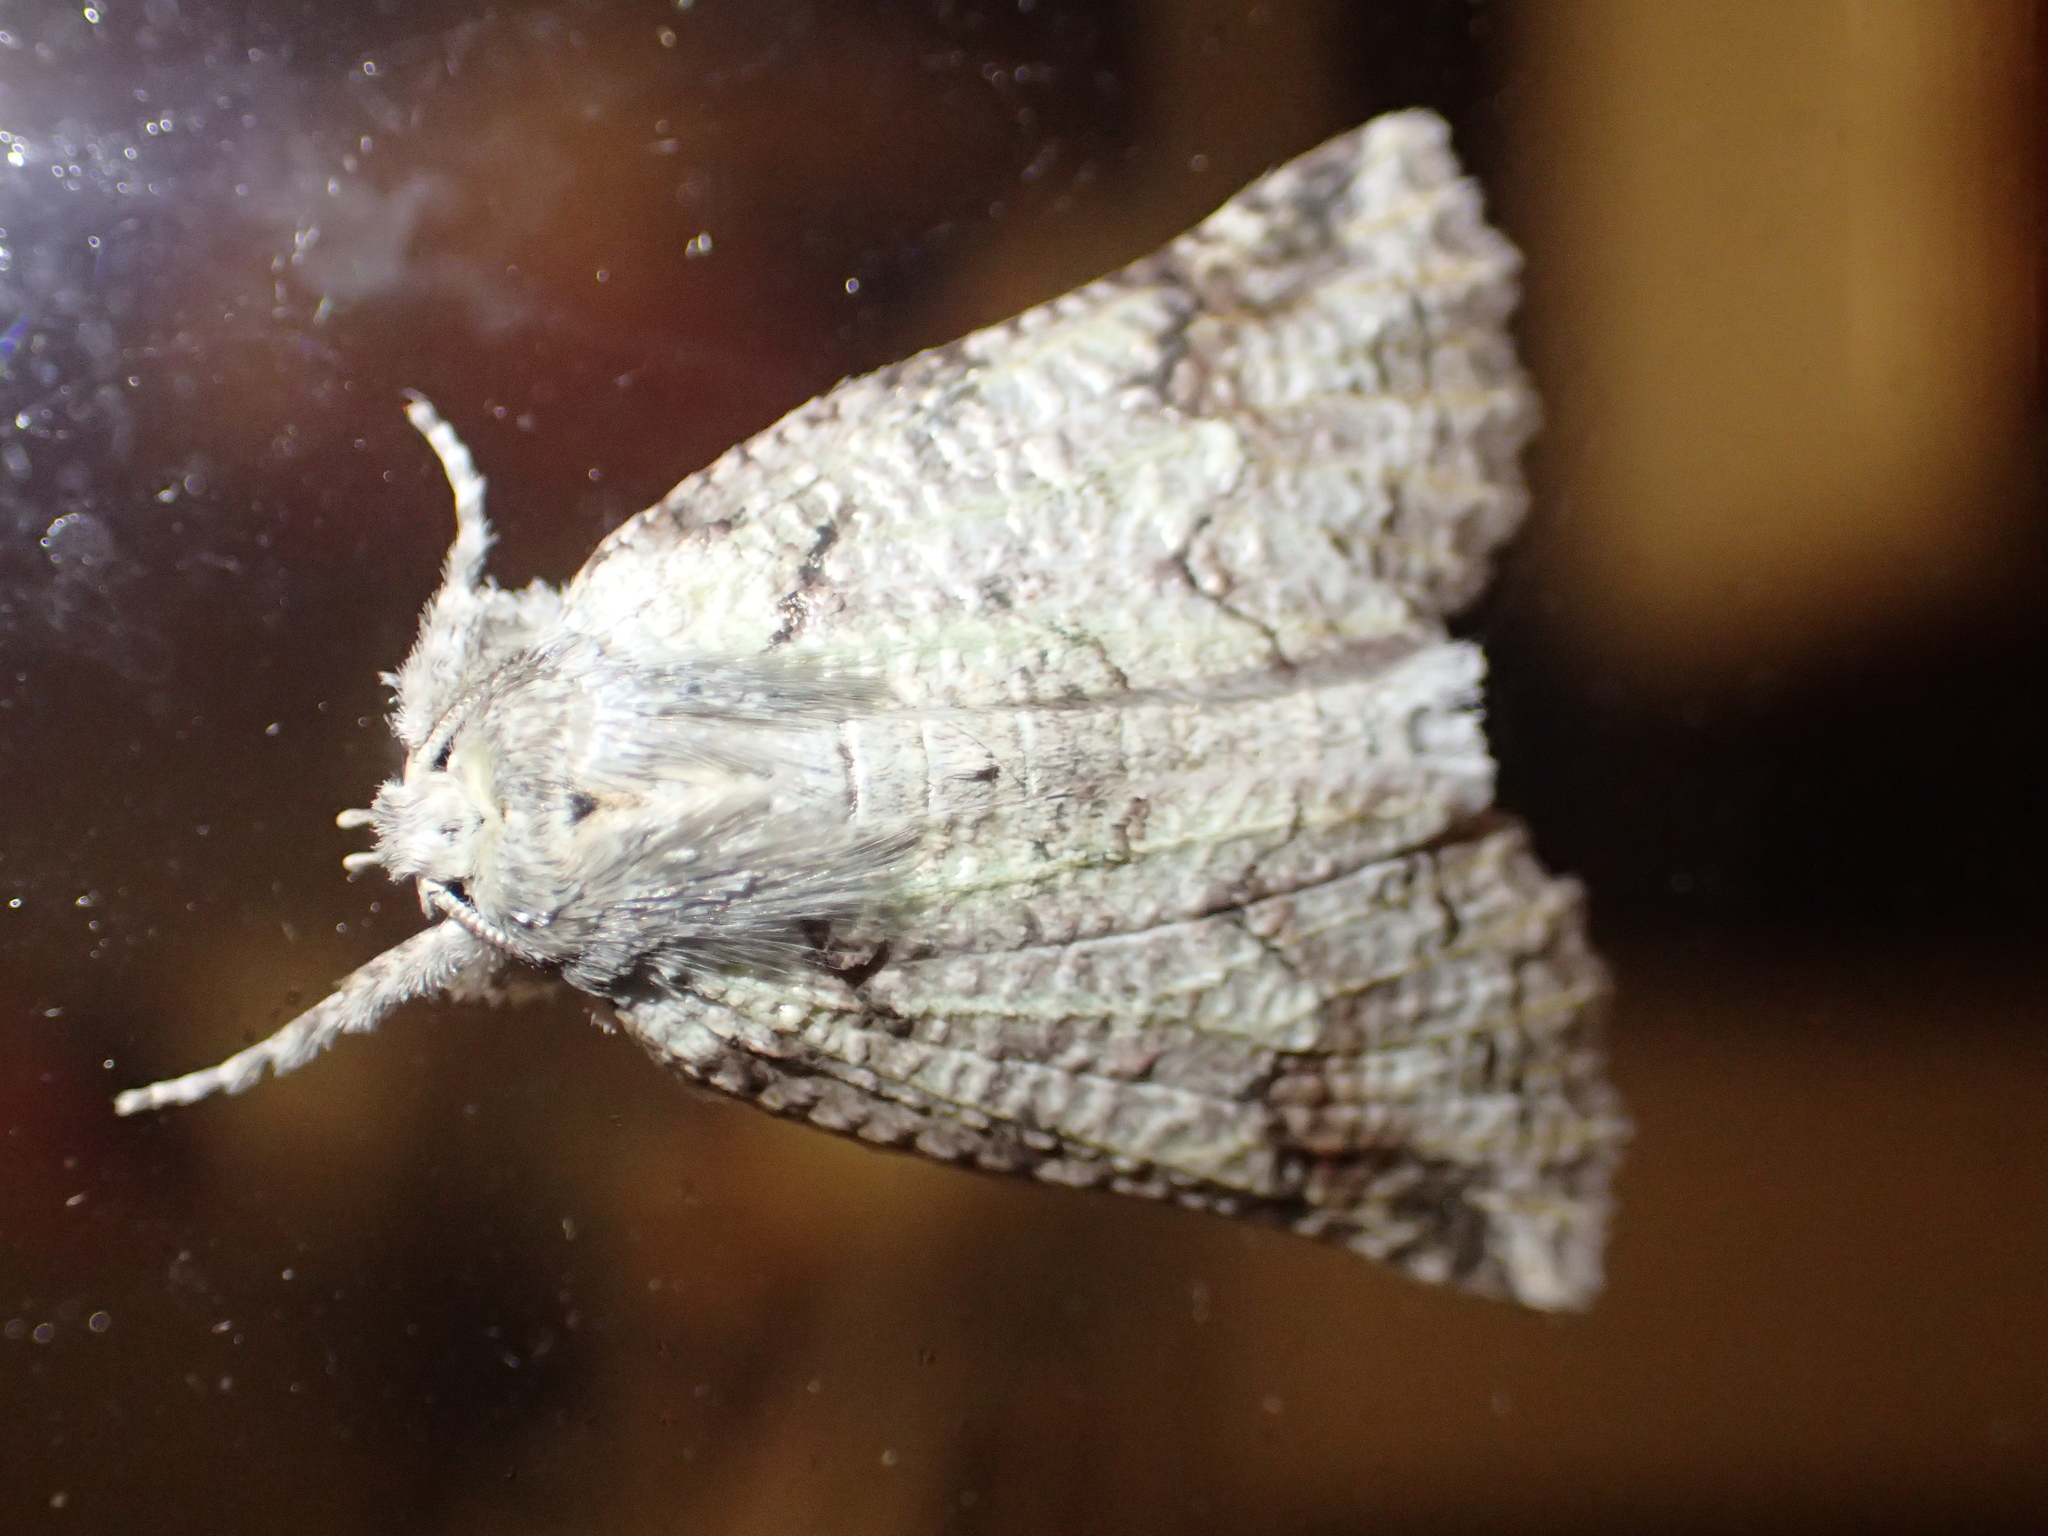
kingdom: Animalia
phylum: Arthropoda
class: Insecta
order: Lepidoptera
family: Geometridae
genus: Declana
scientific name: Declana floccosa
